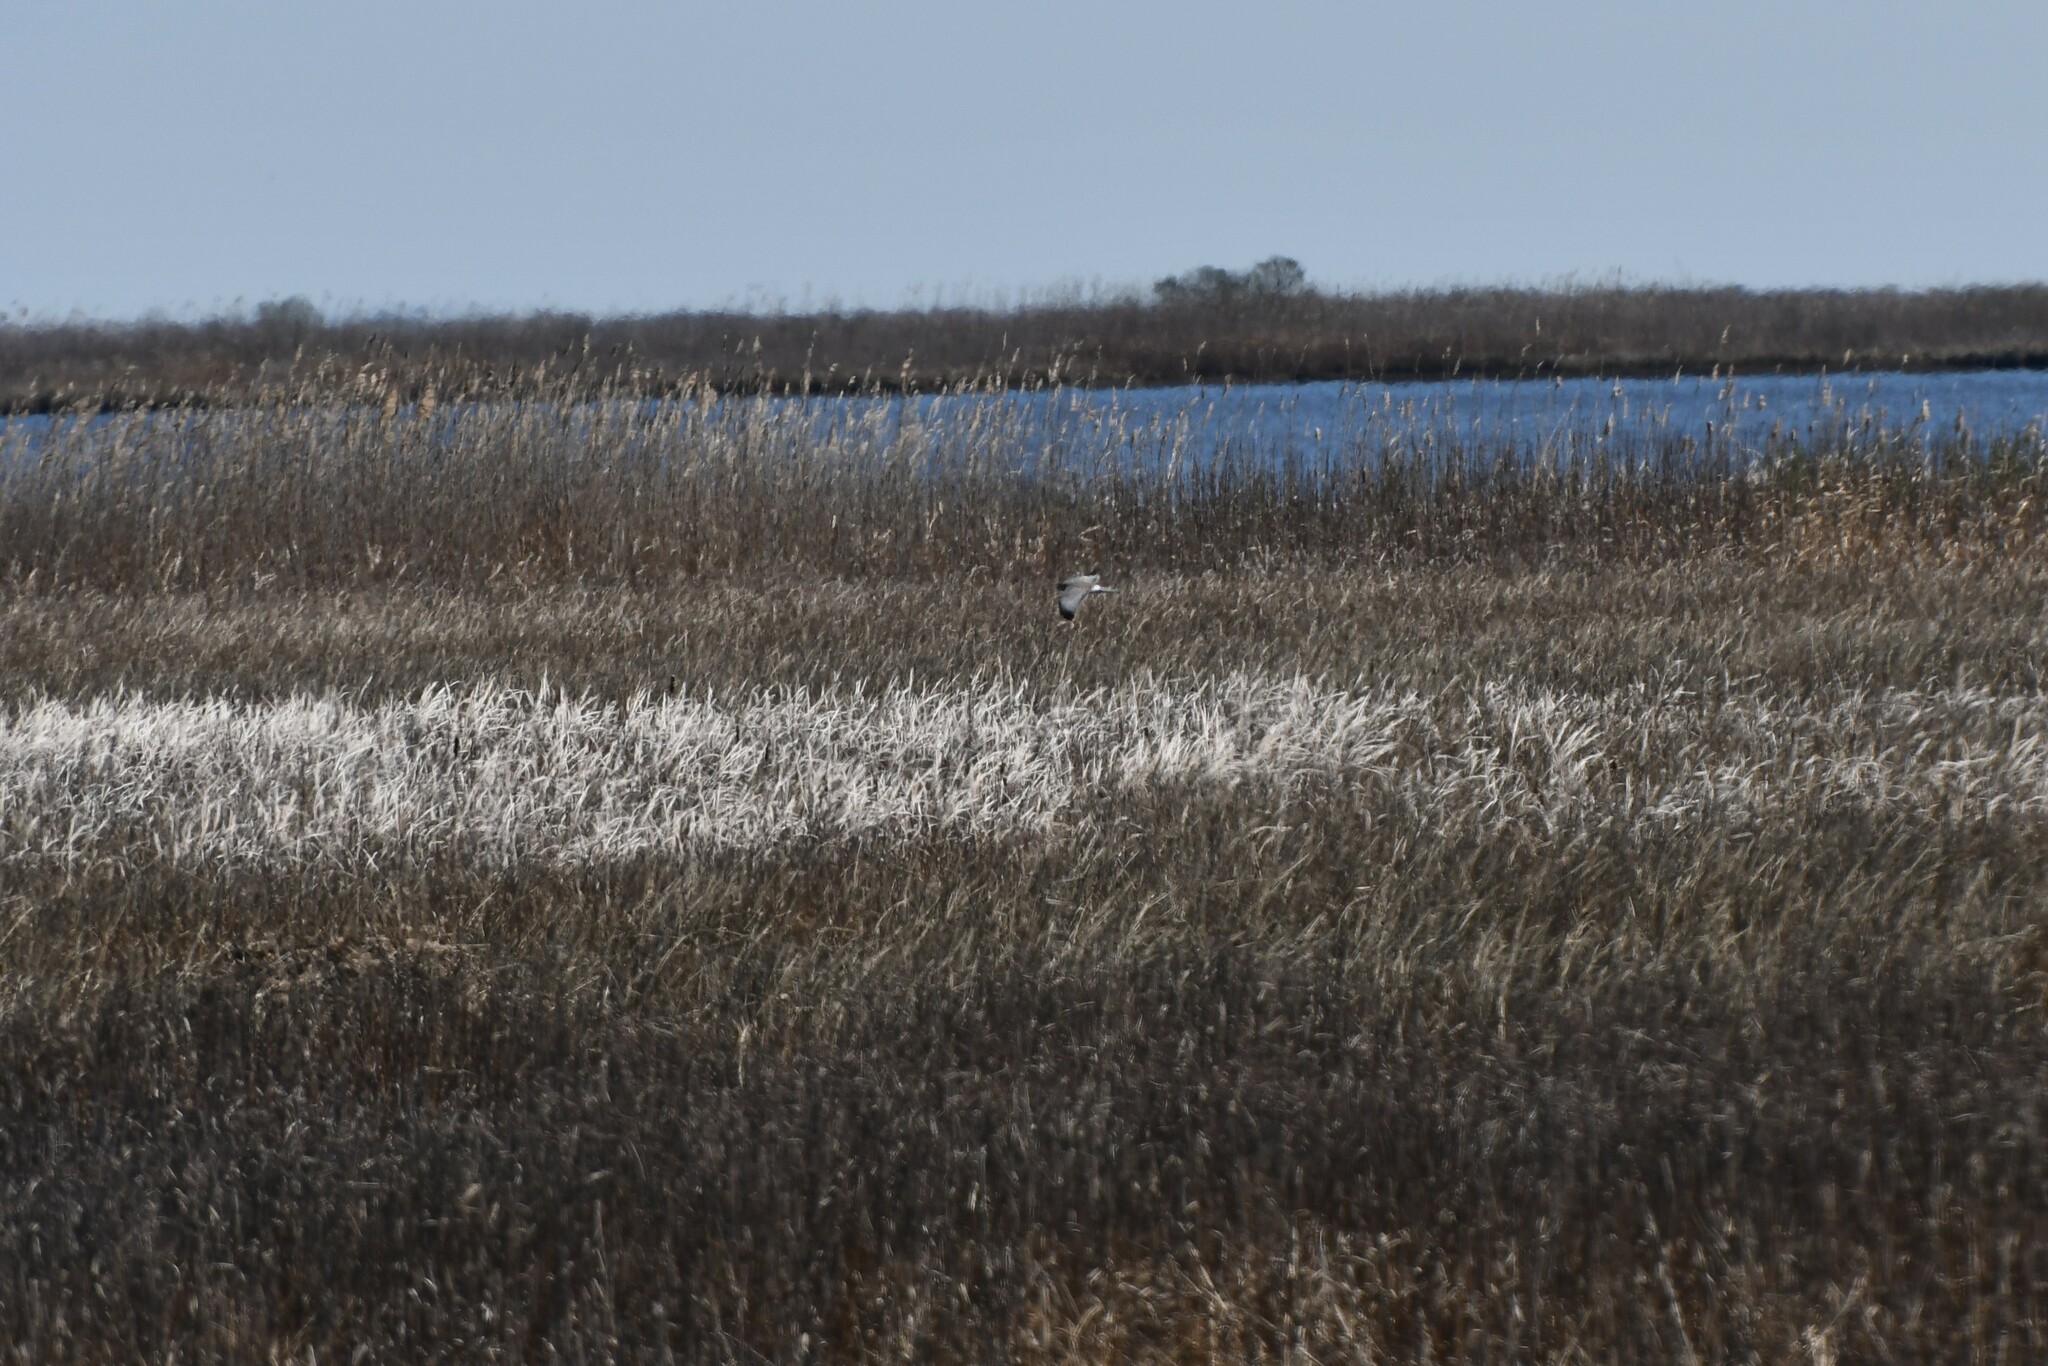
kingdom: Animalia
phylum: Chordata
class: Aves
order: Accipitriformes
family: Accipitridae
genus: Circus
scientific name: Circus cyaneus
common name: Hen harrier
